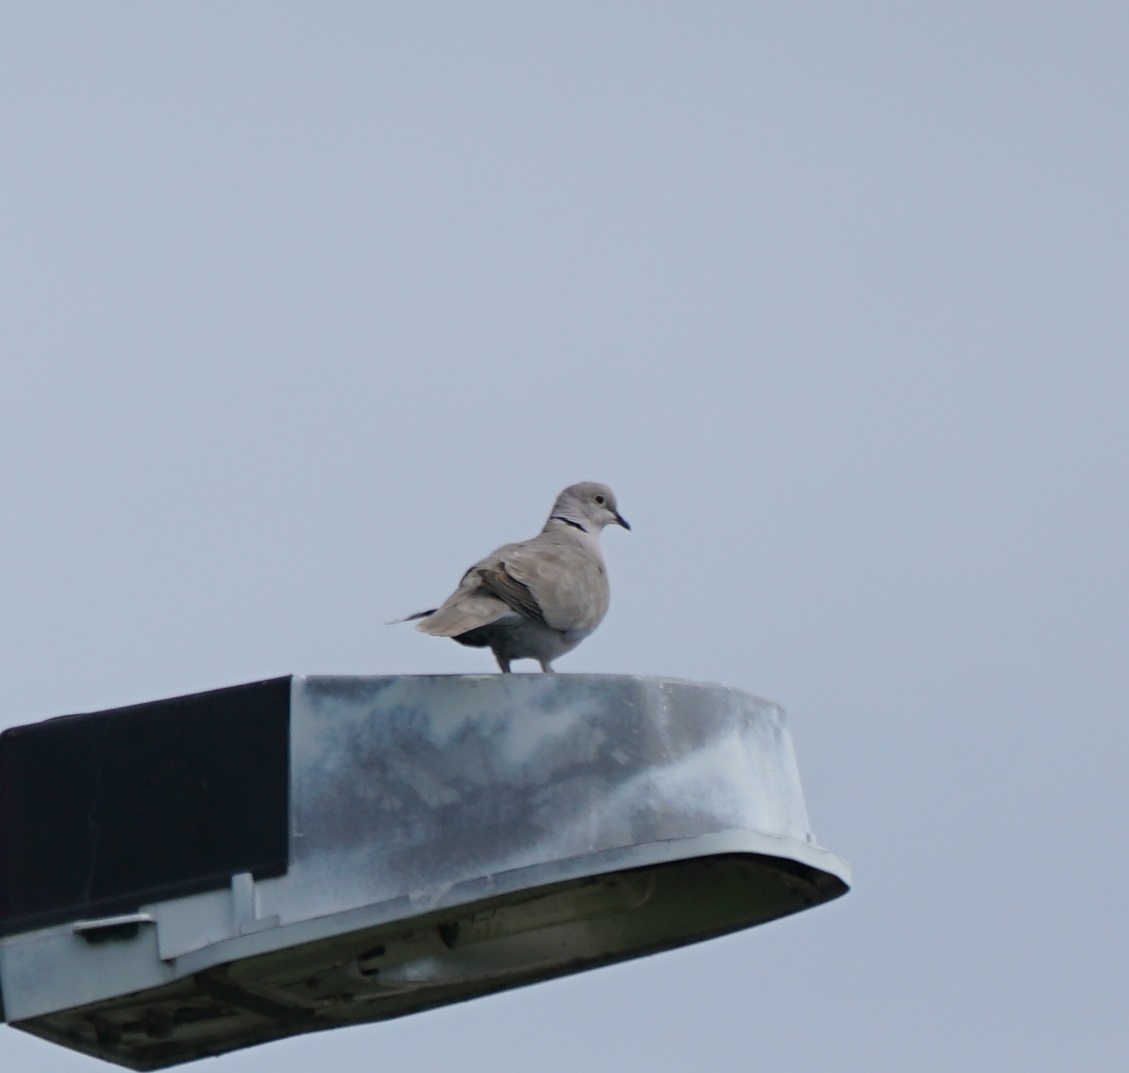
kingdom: Animalia
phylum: Chordata
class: Aves
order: Columbiformes
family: Columbidae
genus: Streptopelia
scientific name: Streptopelia decaocto
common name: Eurasian collared dove
